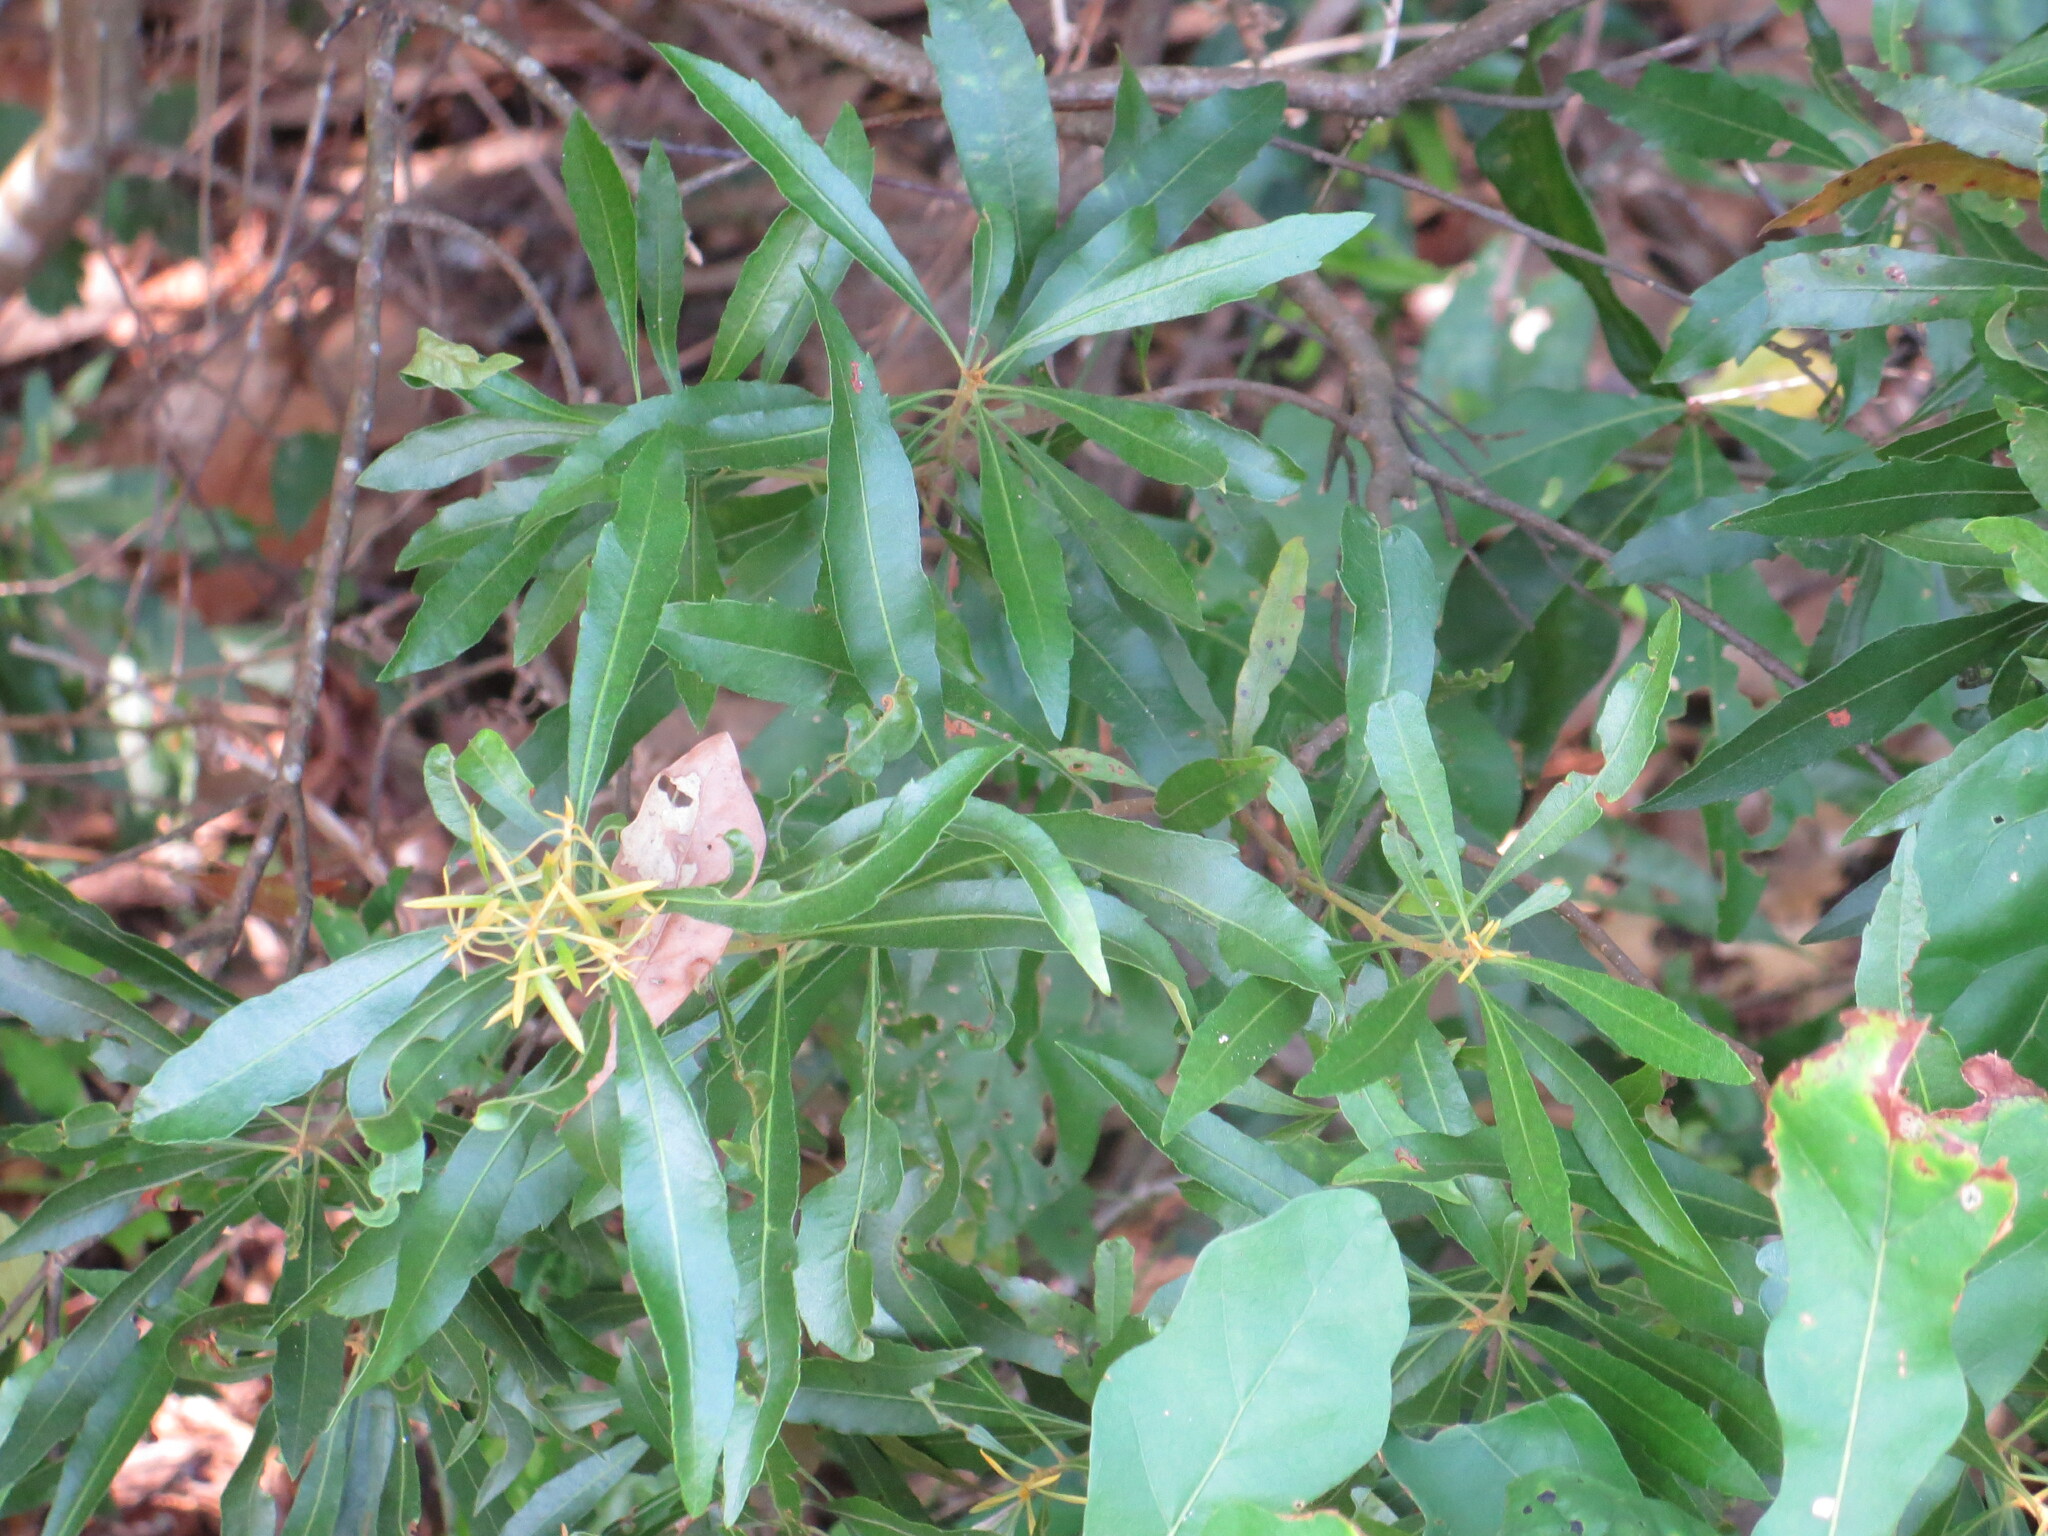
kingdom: Plantae
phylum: Tracheophyta
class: Magnoliopsida
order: Fagales
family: Myricaceae
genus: Morella
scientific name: Morella cerifera
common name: Wax myrtle
